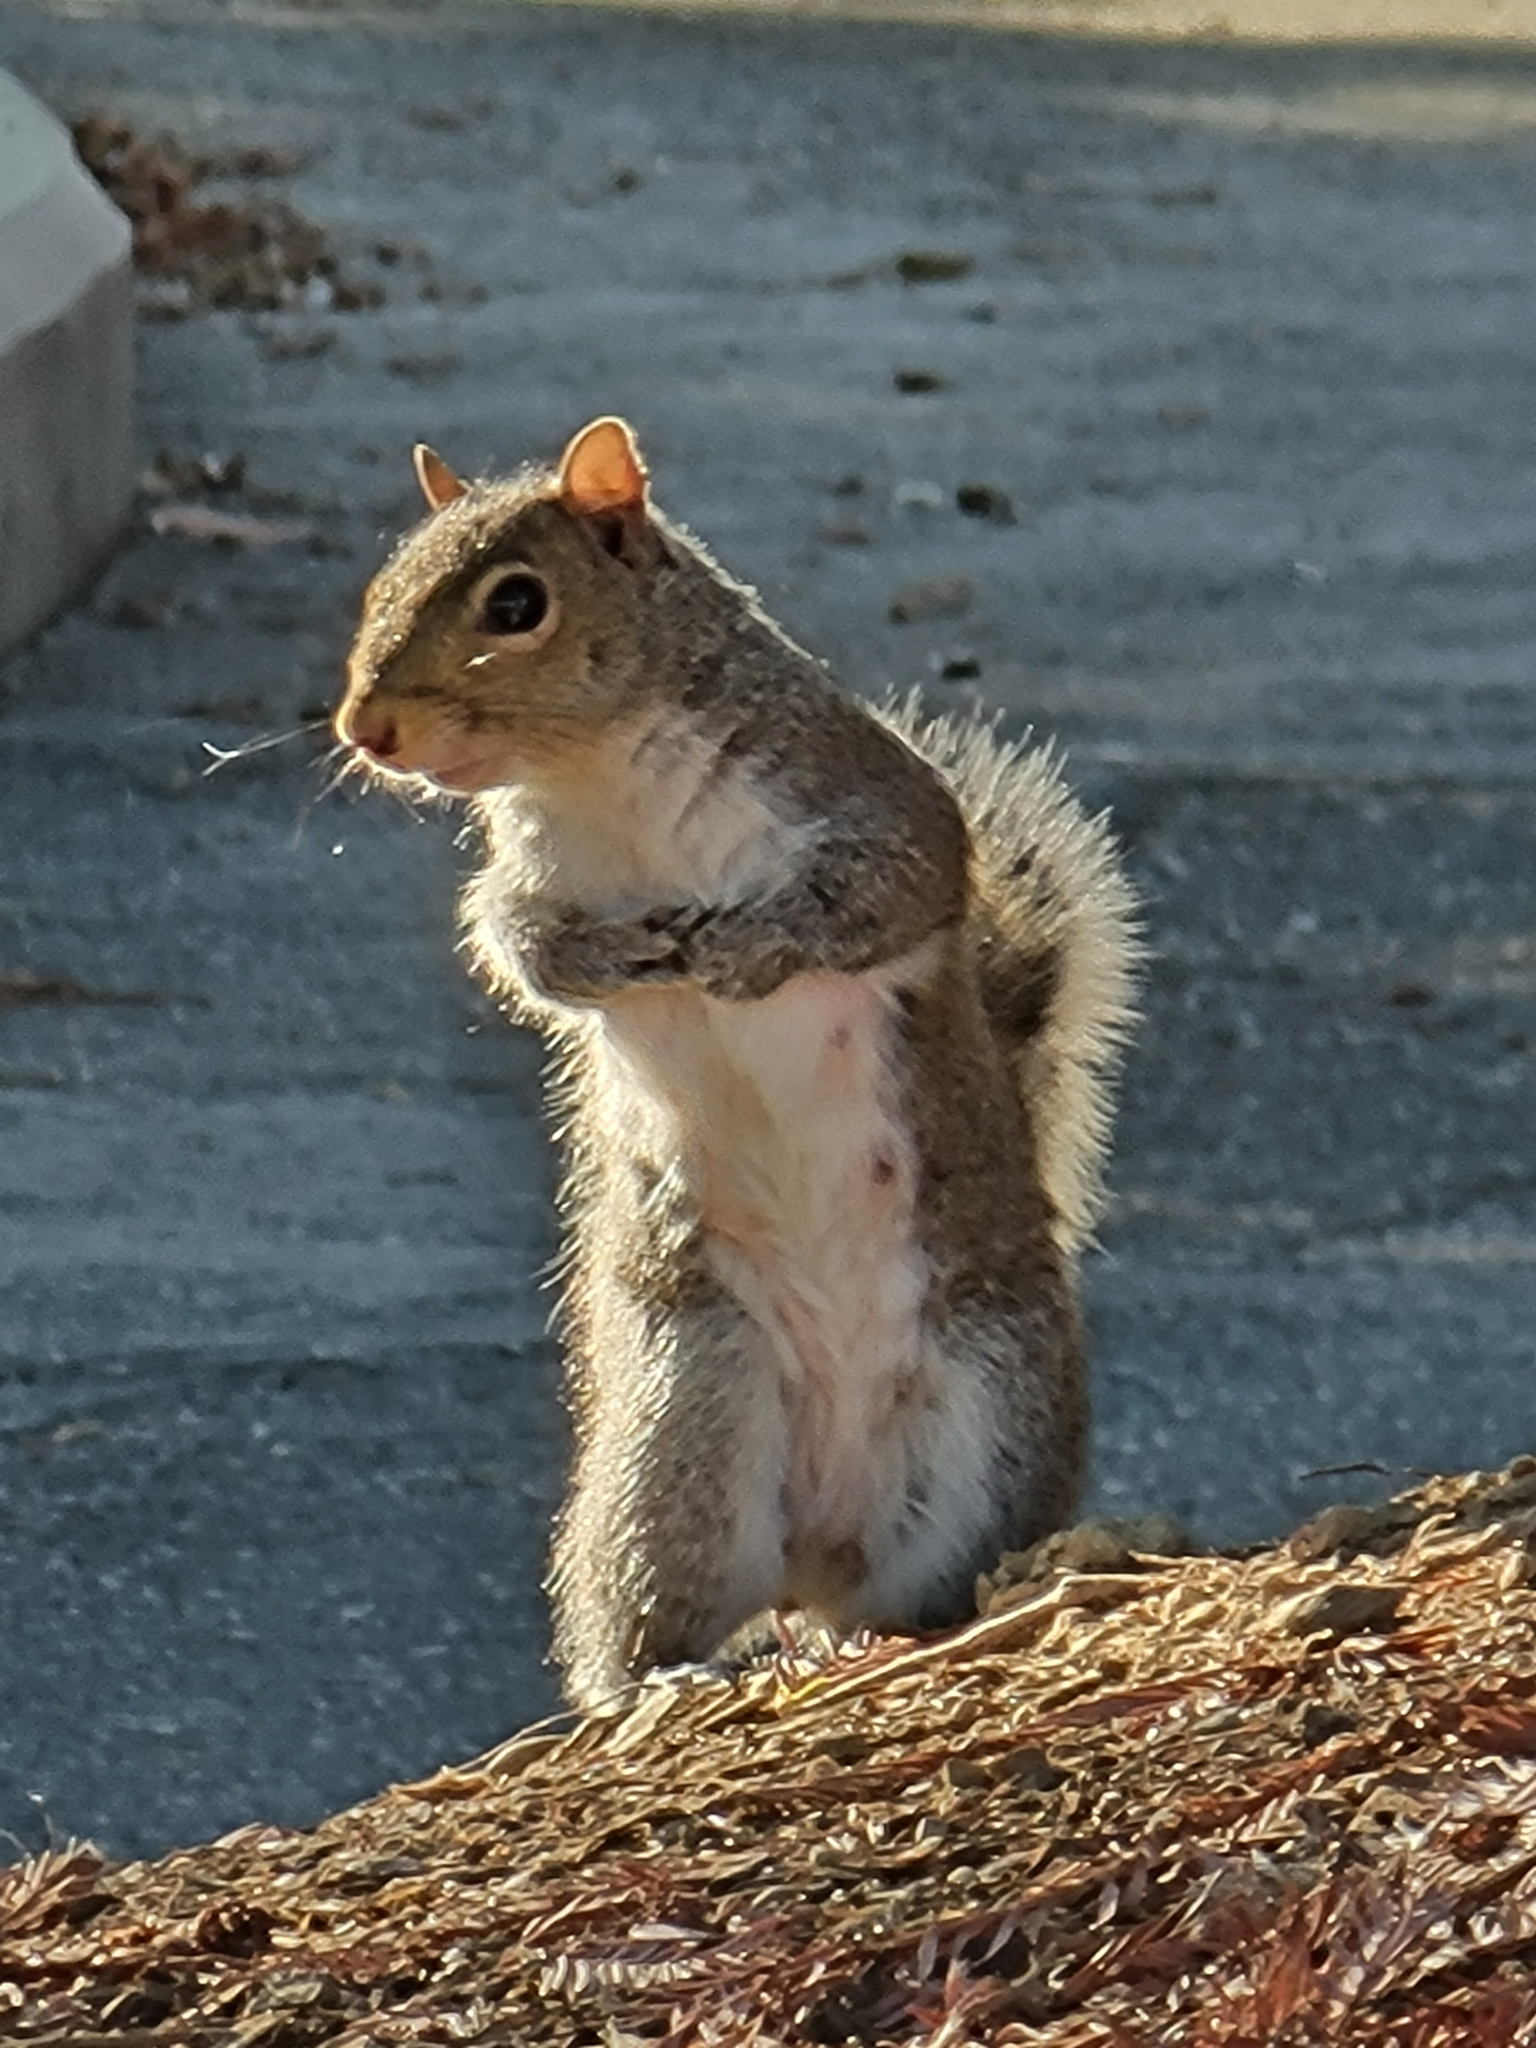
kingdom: Animalia
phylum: Chordata
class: Mammalia
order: Rodentia
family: Sciuridae
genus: Sciurus
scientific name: Sciurus carolinensis
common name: Eastern gray squirrel
